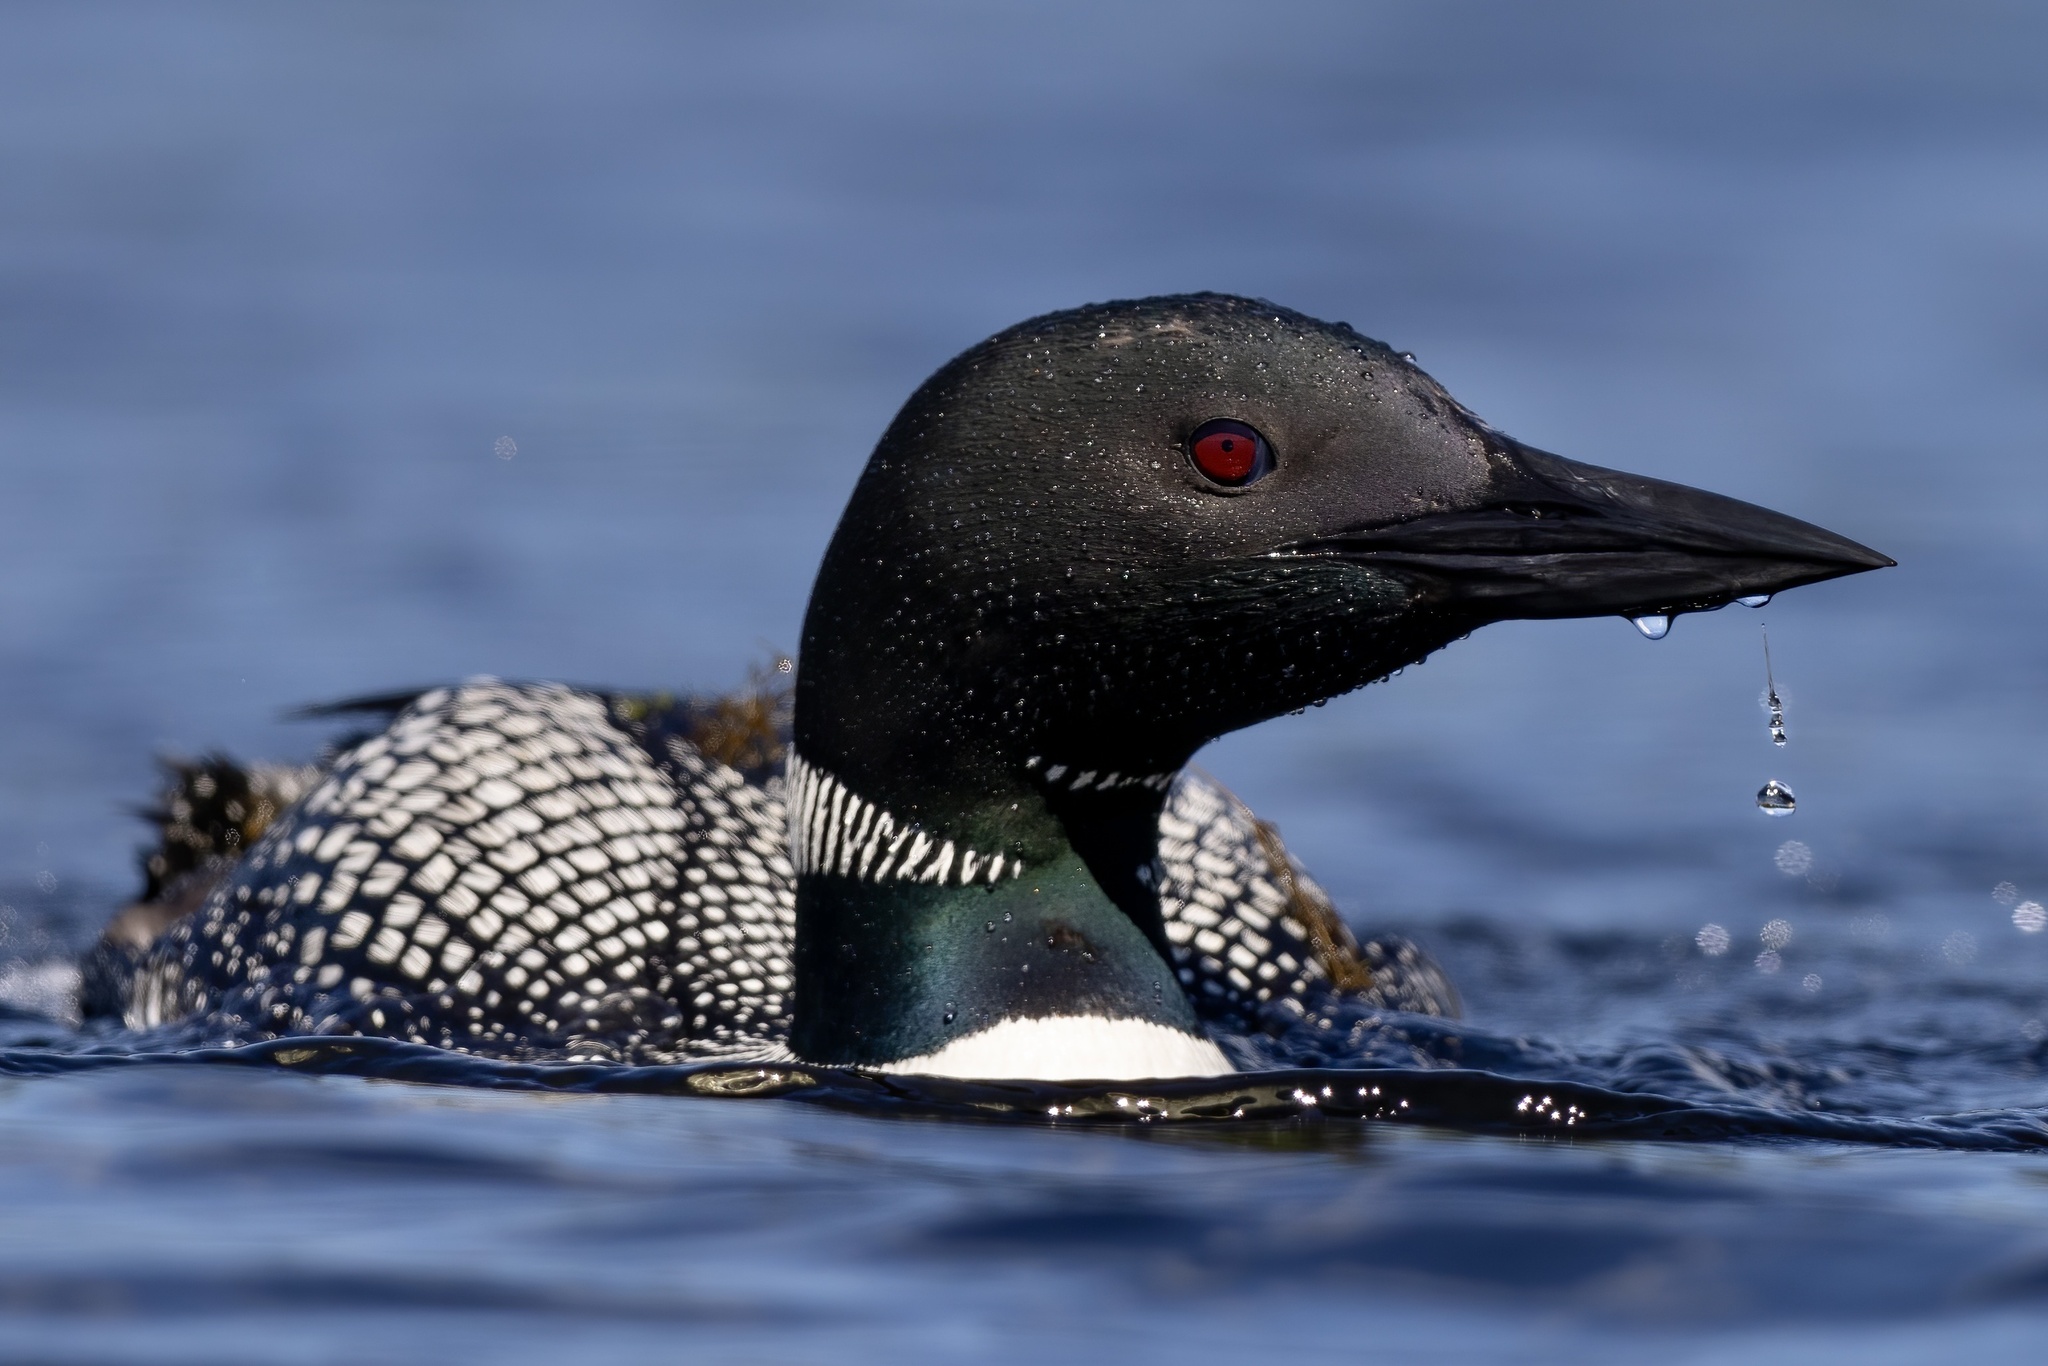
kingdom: Animalia
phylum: Chordata
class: Aves
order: Gaviiformes
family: Gaviidae
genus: Gavia
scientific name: Gavia immer
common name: Common loon
